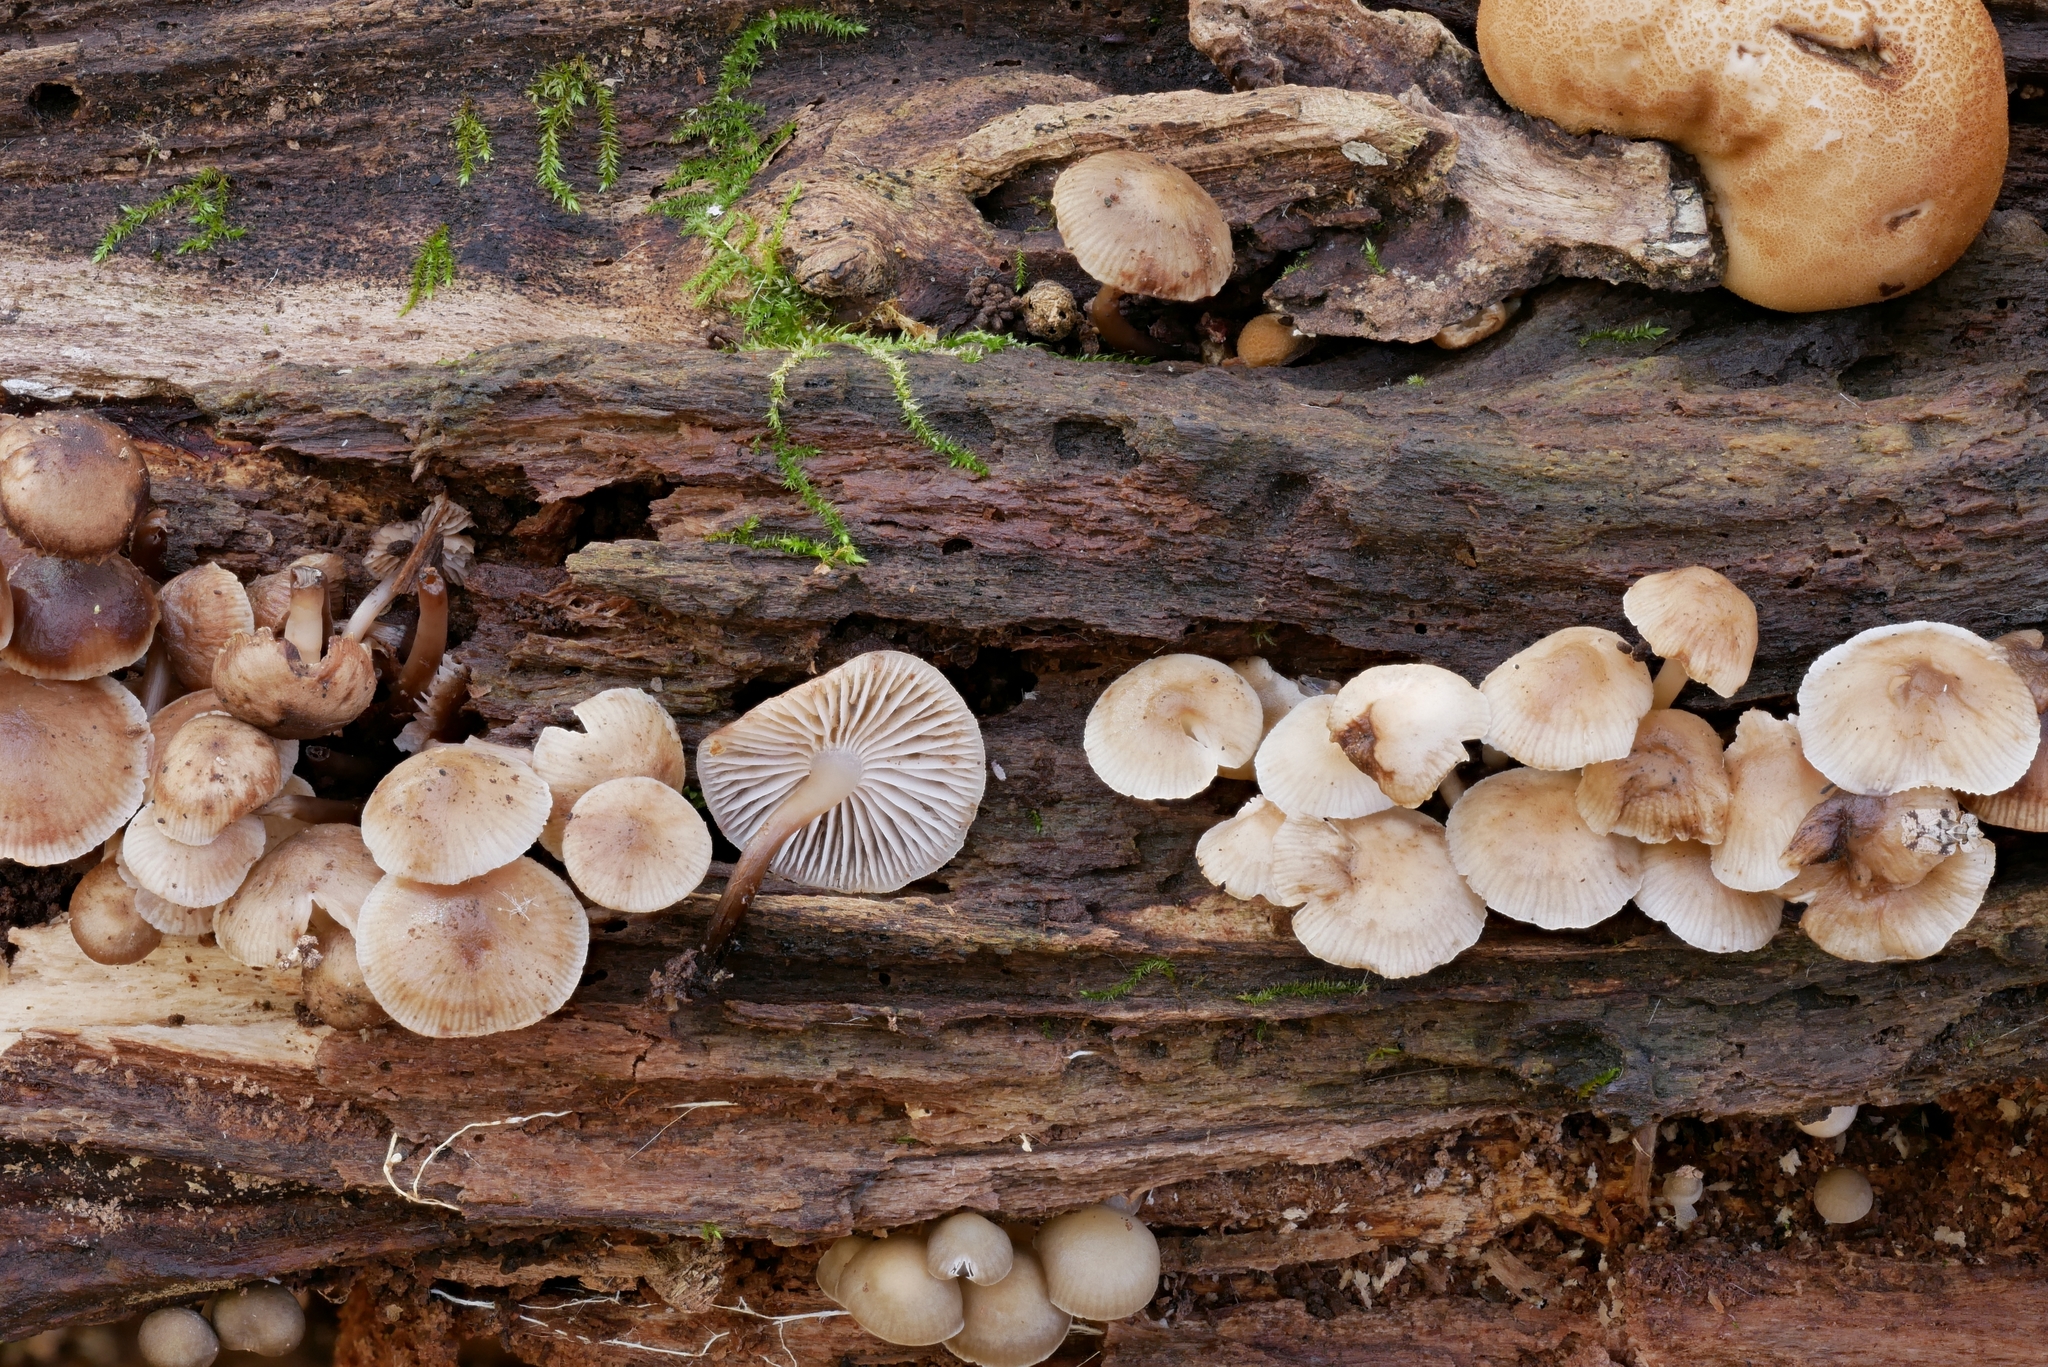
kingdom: Fungi
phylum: Basidiomycota
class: Agaricomycetes
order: Agaricales
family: Mycenaceae
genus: Mycena
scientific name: Mycena semivestipes
